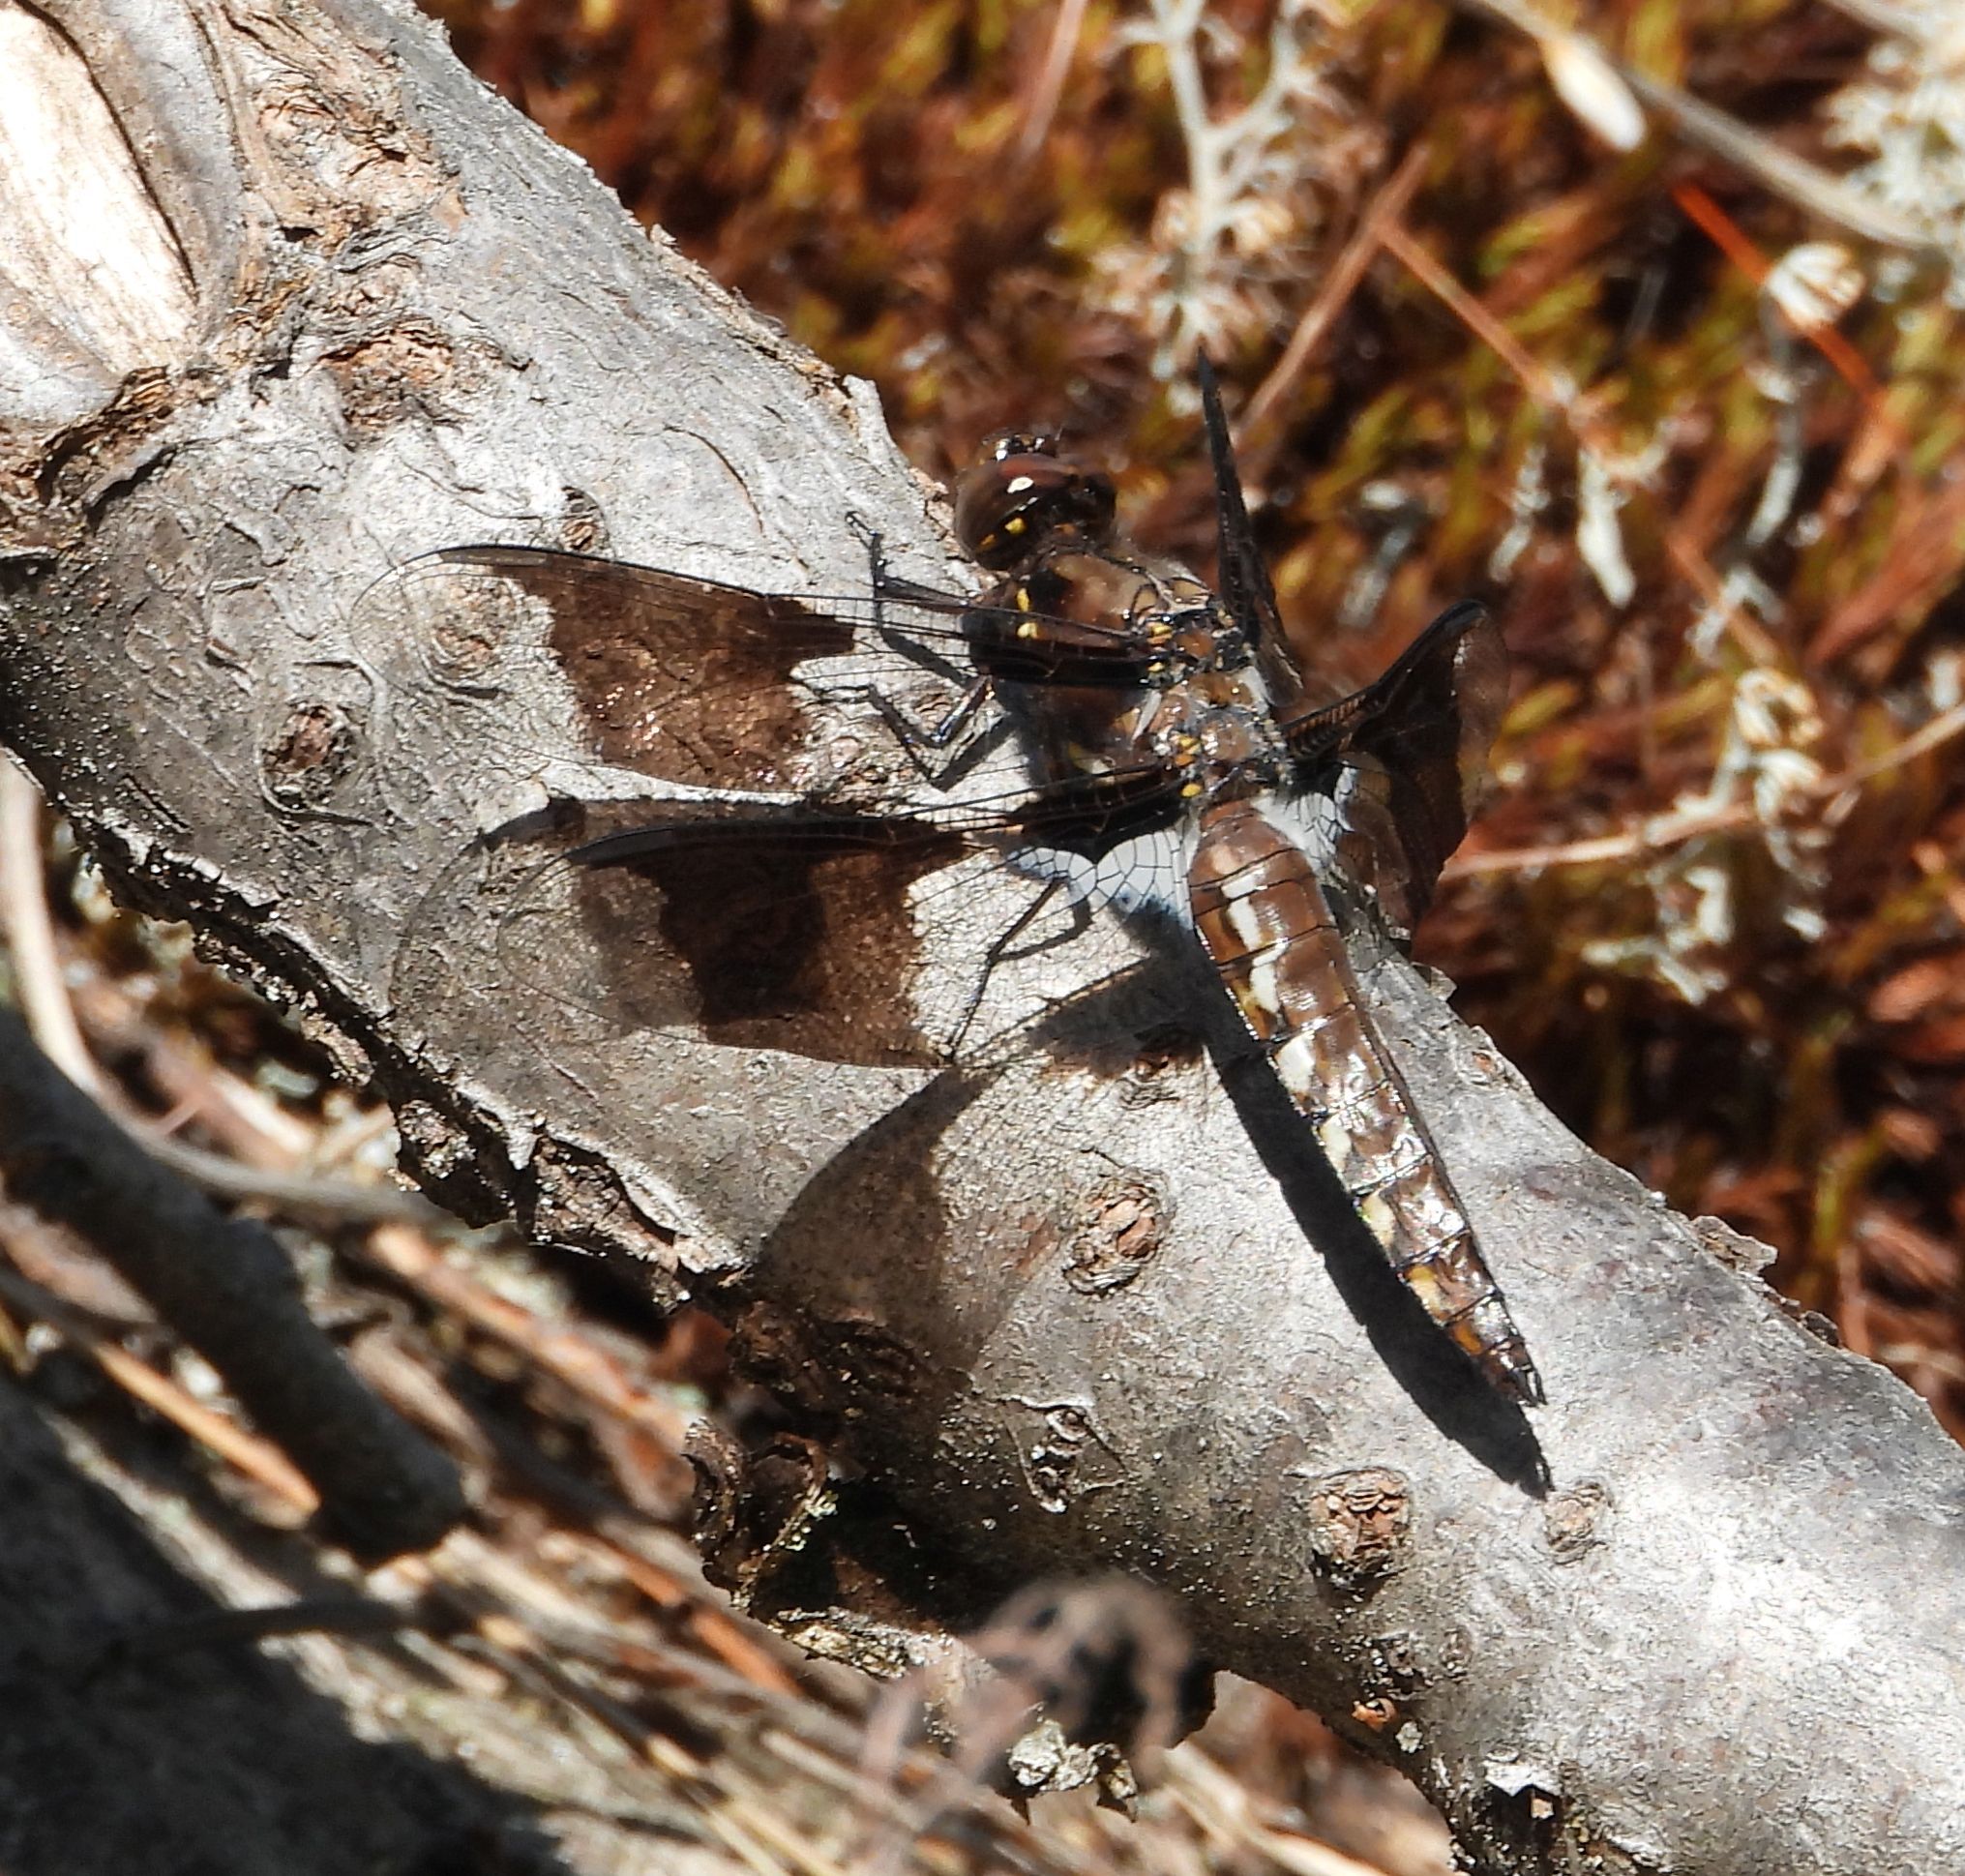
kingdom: Animalia
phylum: Arthropoda
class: Insecta
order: Odonata
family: Libellulidae
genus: Plathemis
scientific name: Plathemis lydia
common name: Common whitetail
